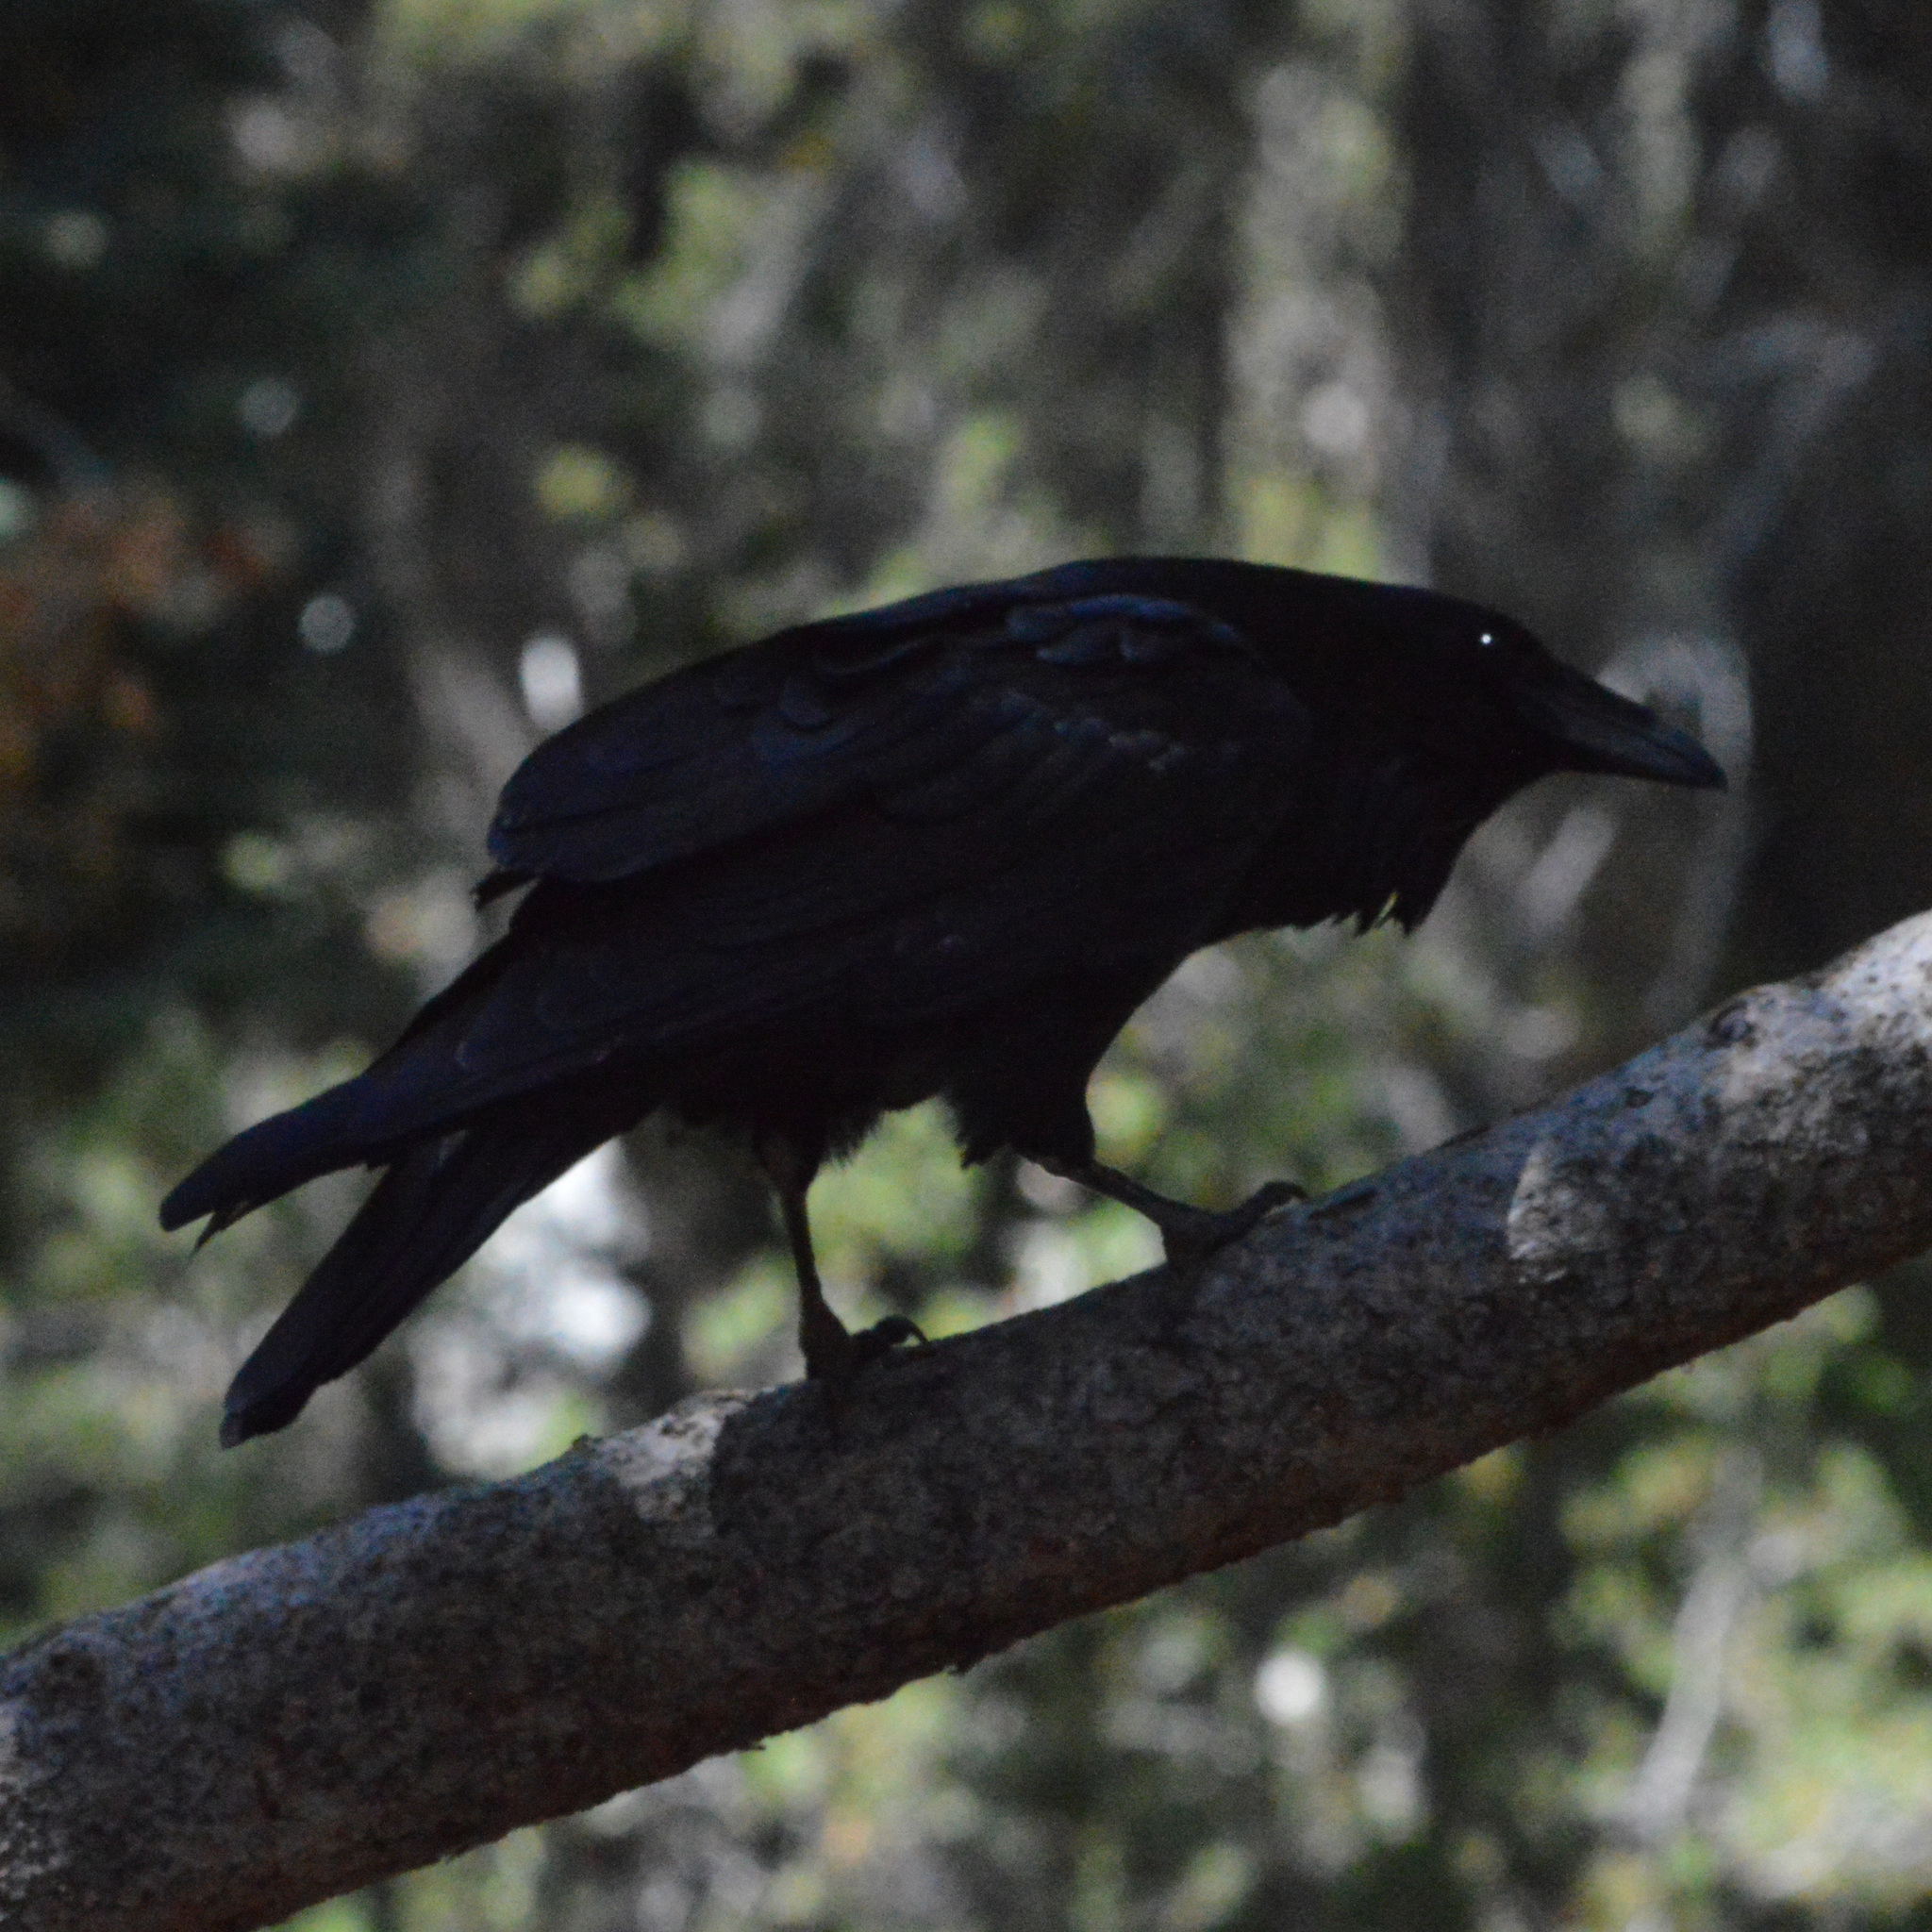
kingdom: Animalia
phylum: Chordata
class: Aves
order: Passeriformes
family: Corvidae
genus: Corvus
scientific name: Corvus corax
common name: Common raven
